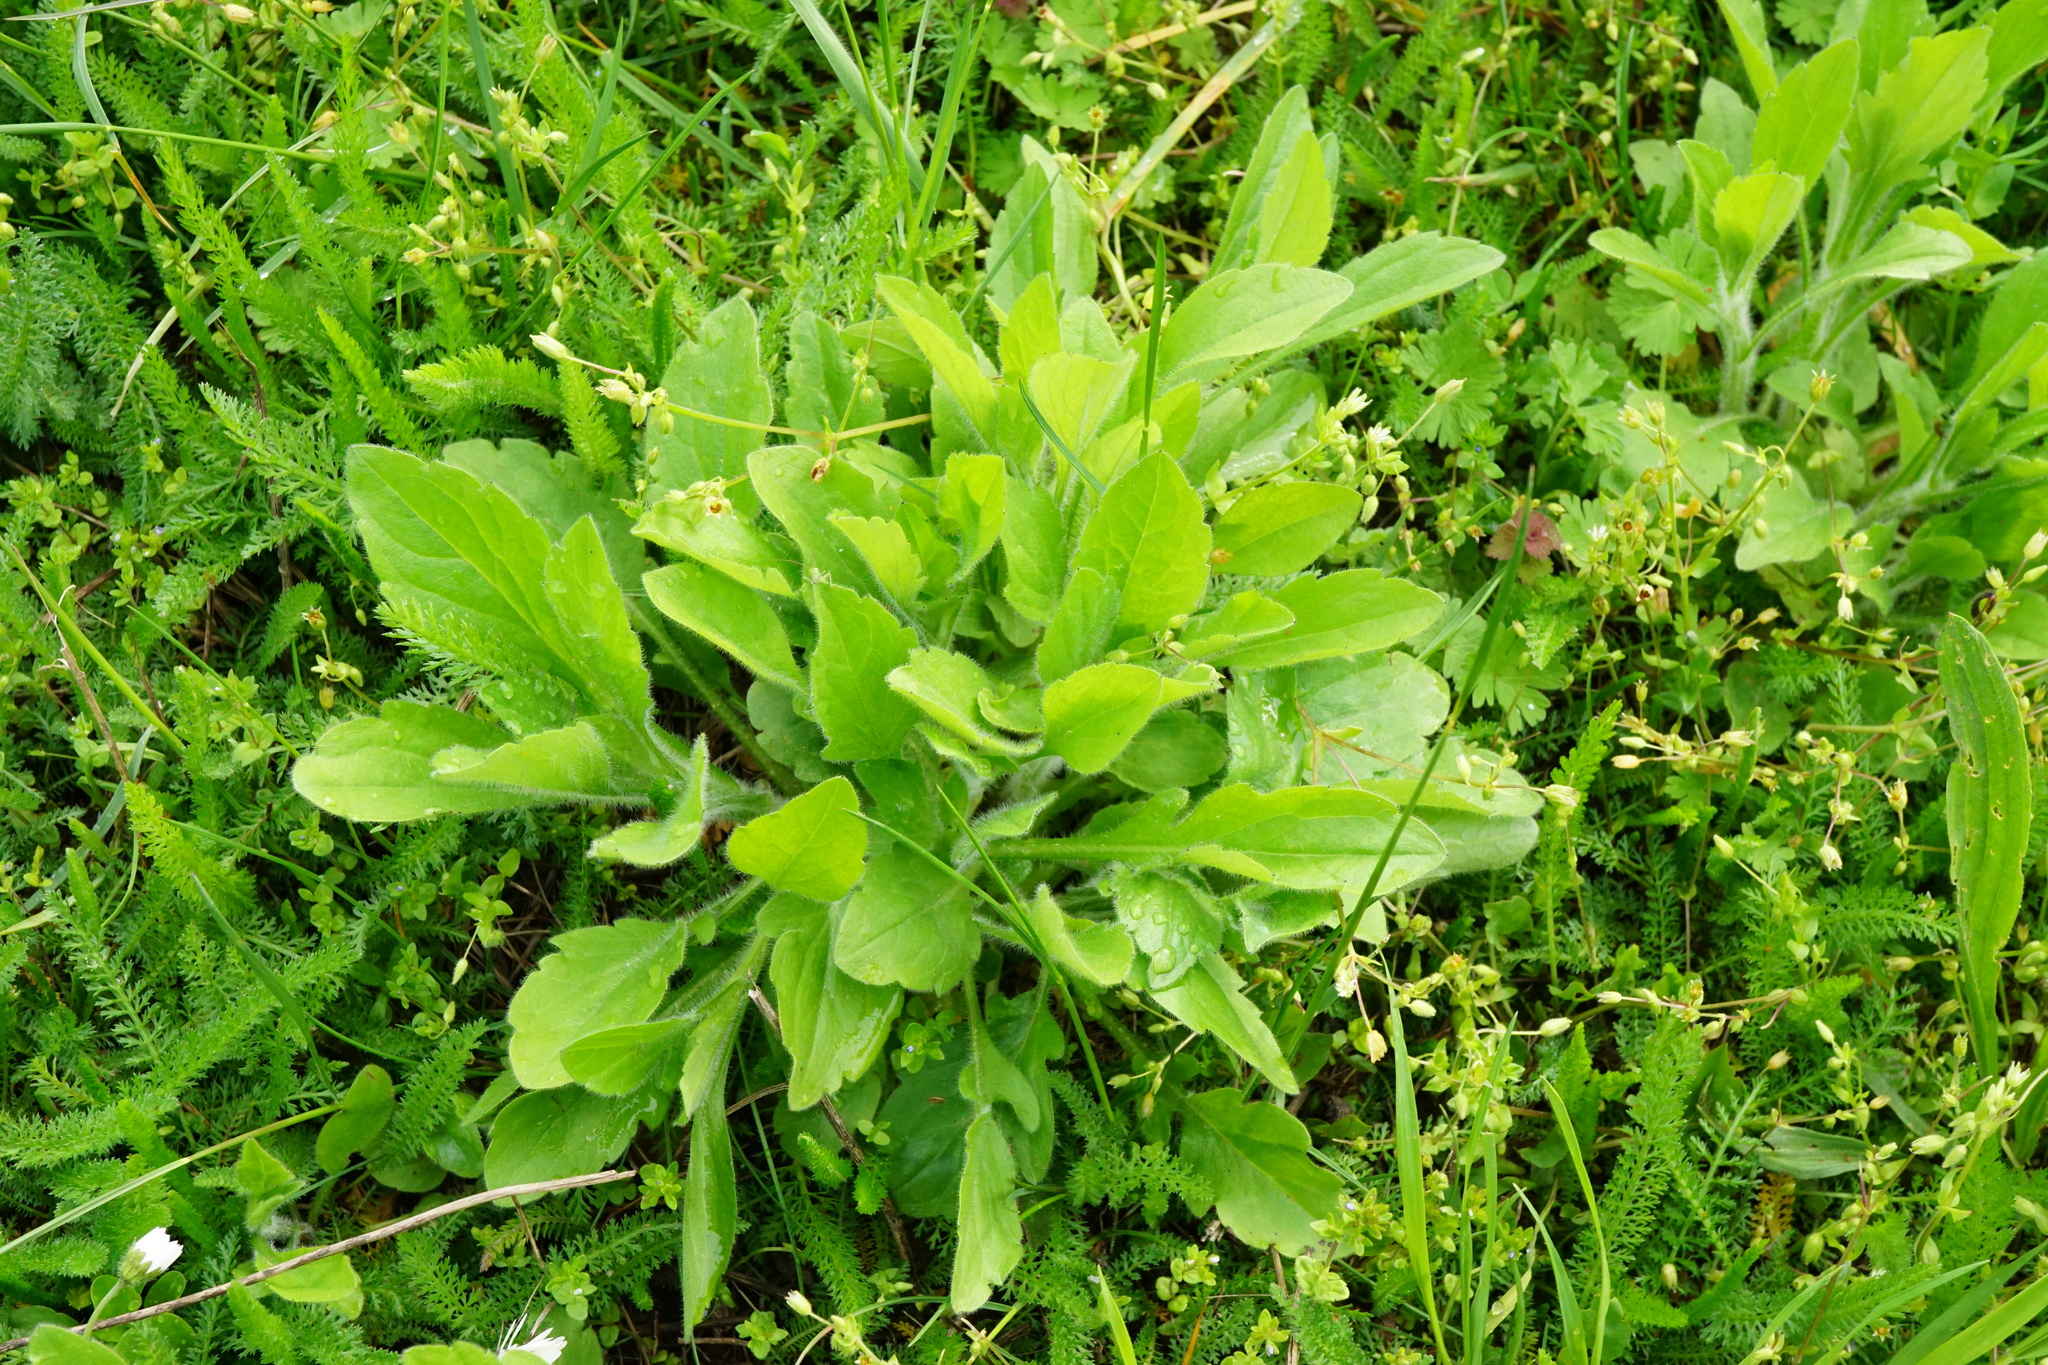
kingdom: Plantae
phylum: Tracheophyta
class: Magnoliopsida
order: Asterales
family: Asteraceae
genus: Erigeron
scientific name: Erigeron annuus
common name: Tall fleabane
